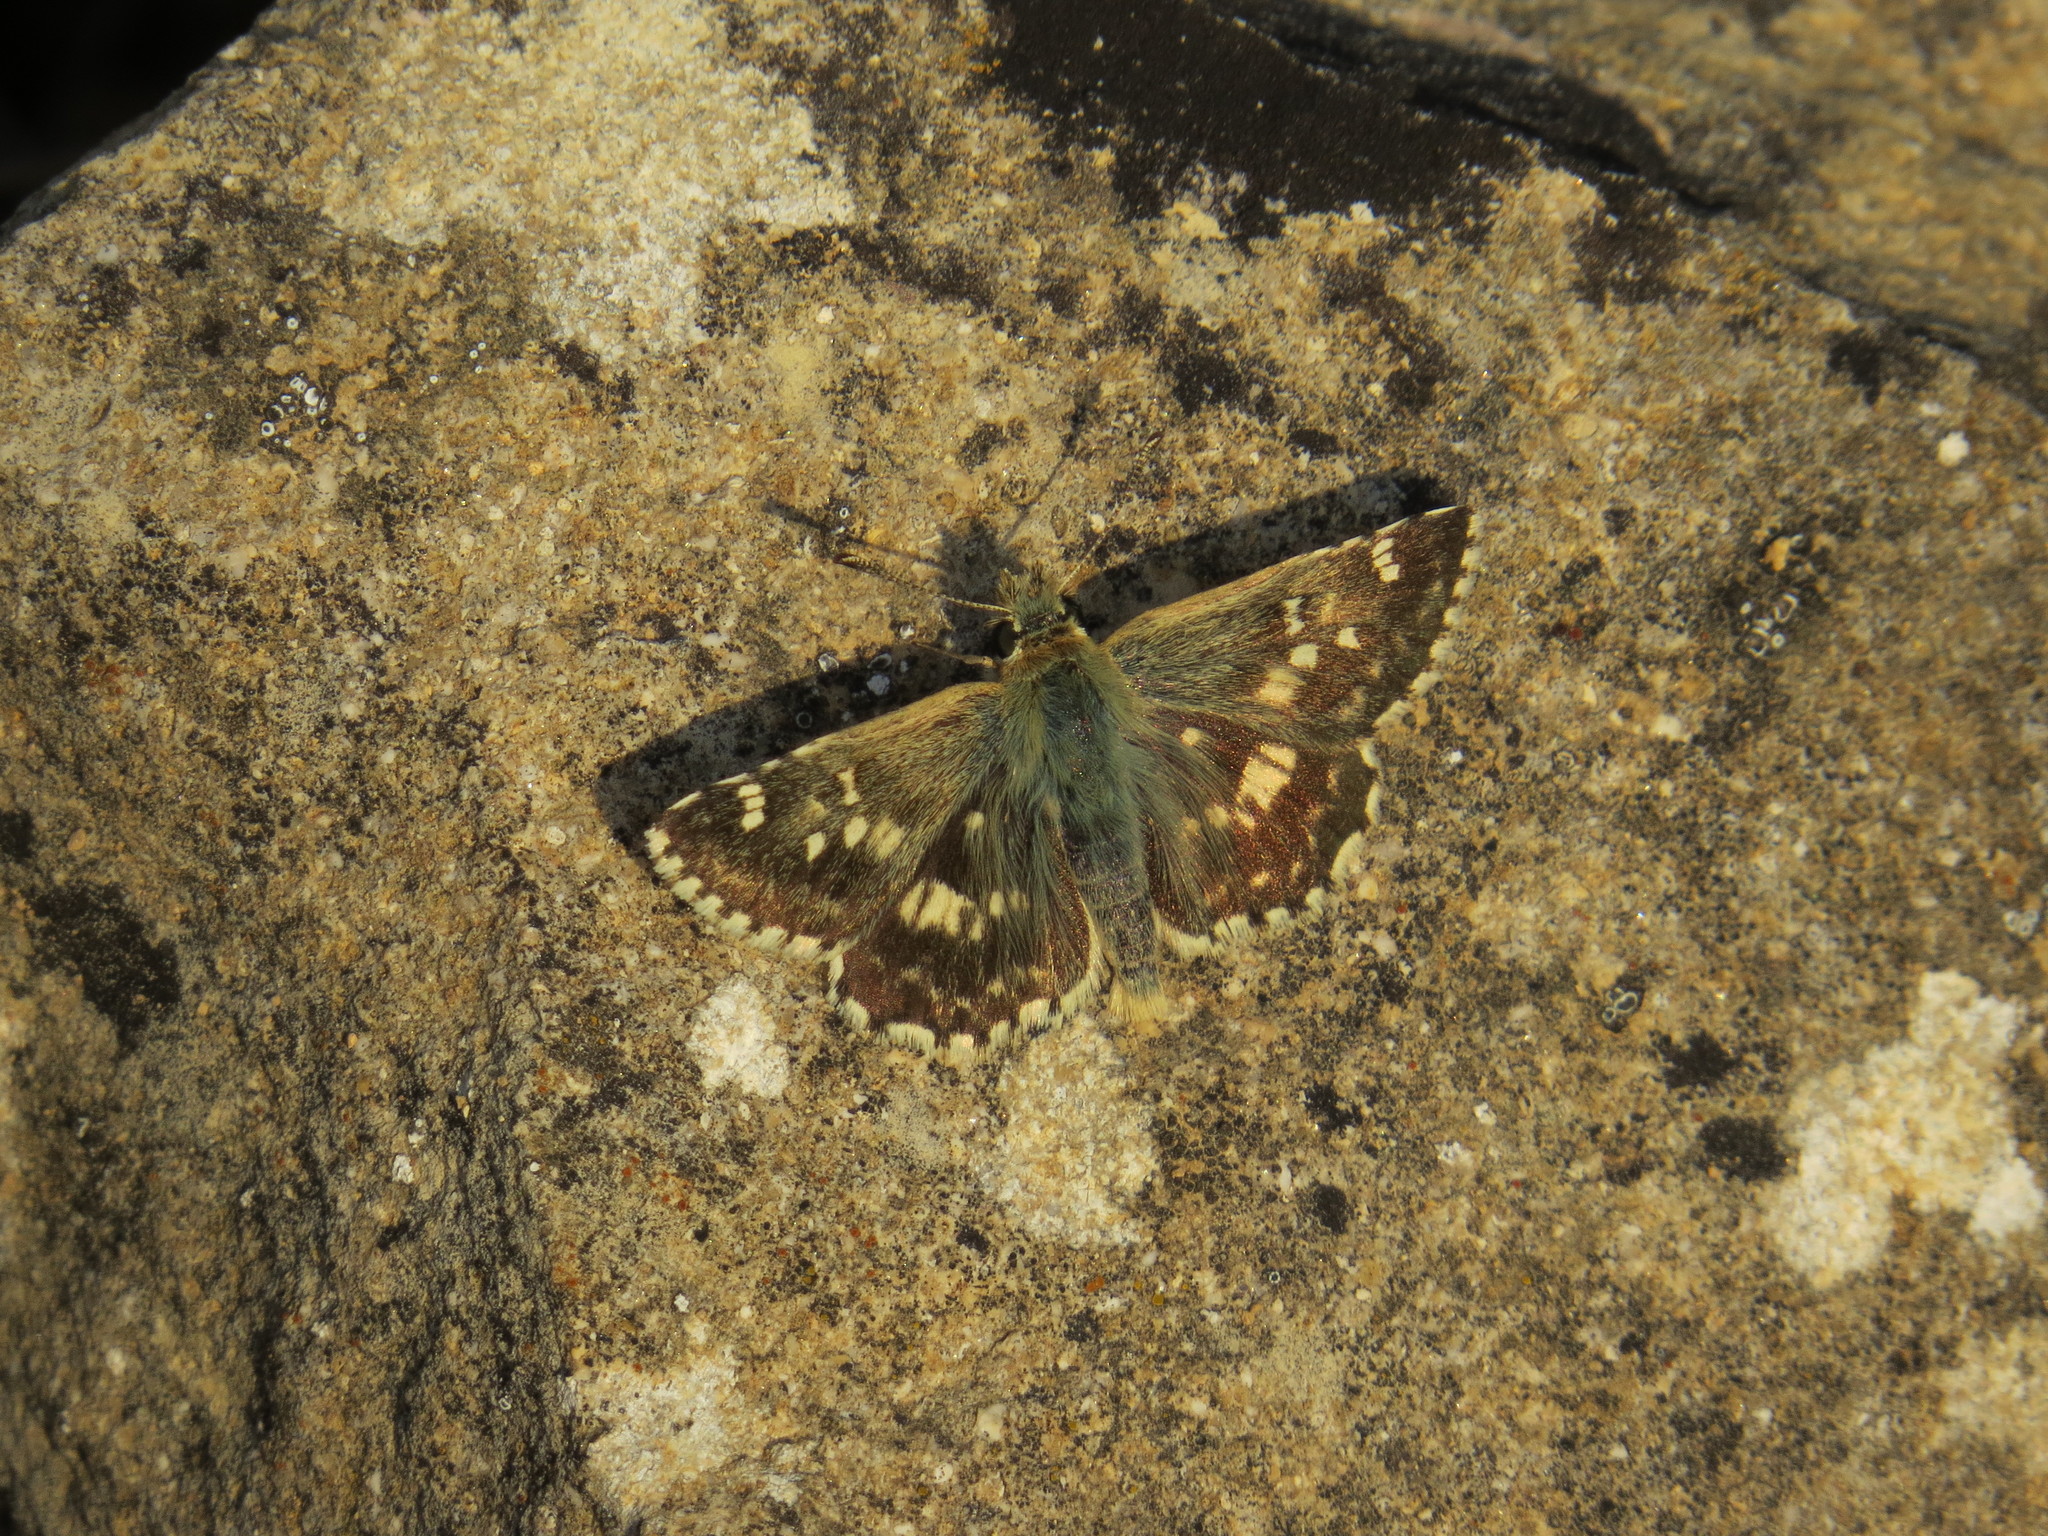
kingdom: Animalia
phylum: Arthropoda
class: Insecta
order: Lepidoptera
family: Hesperiidae
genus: Syrichtus
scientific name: Syrichtus Muschampia proto
